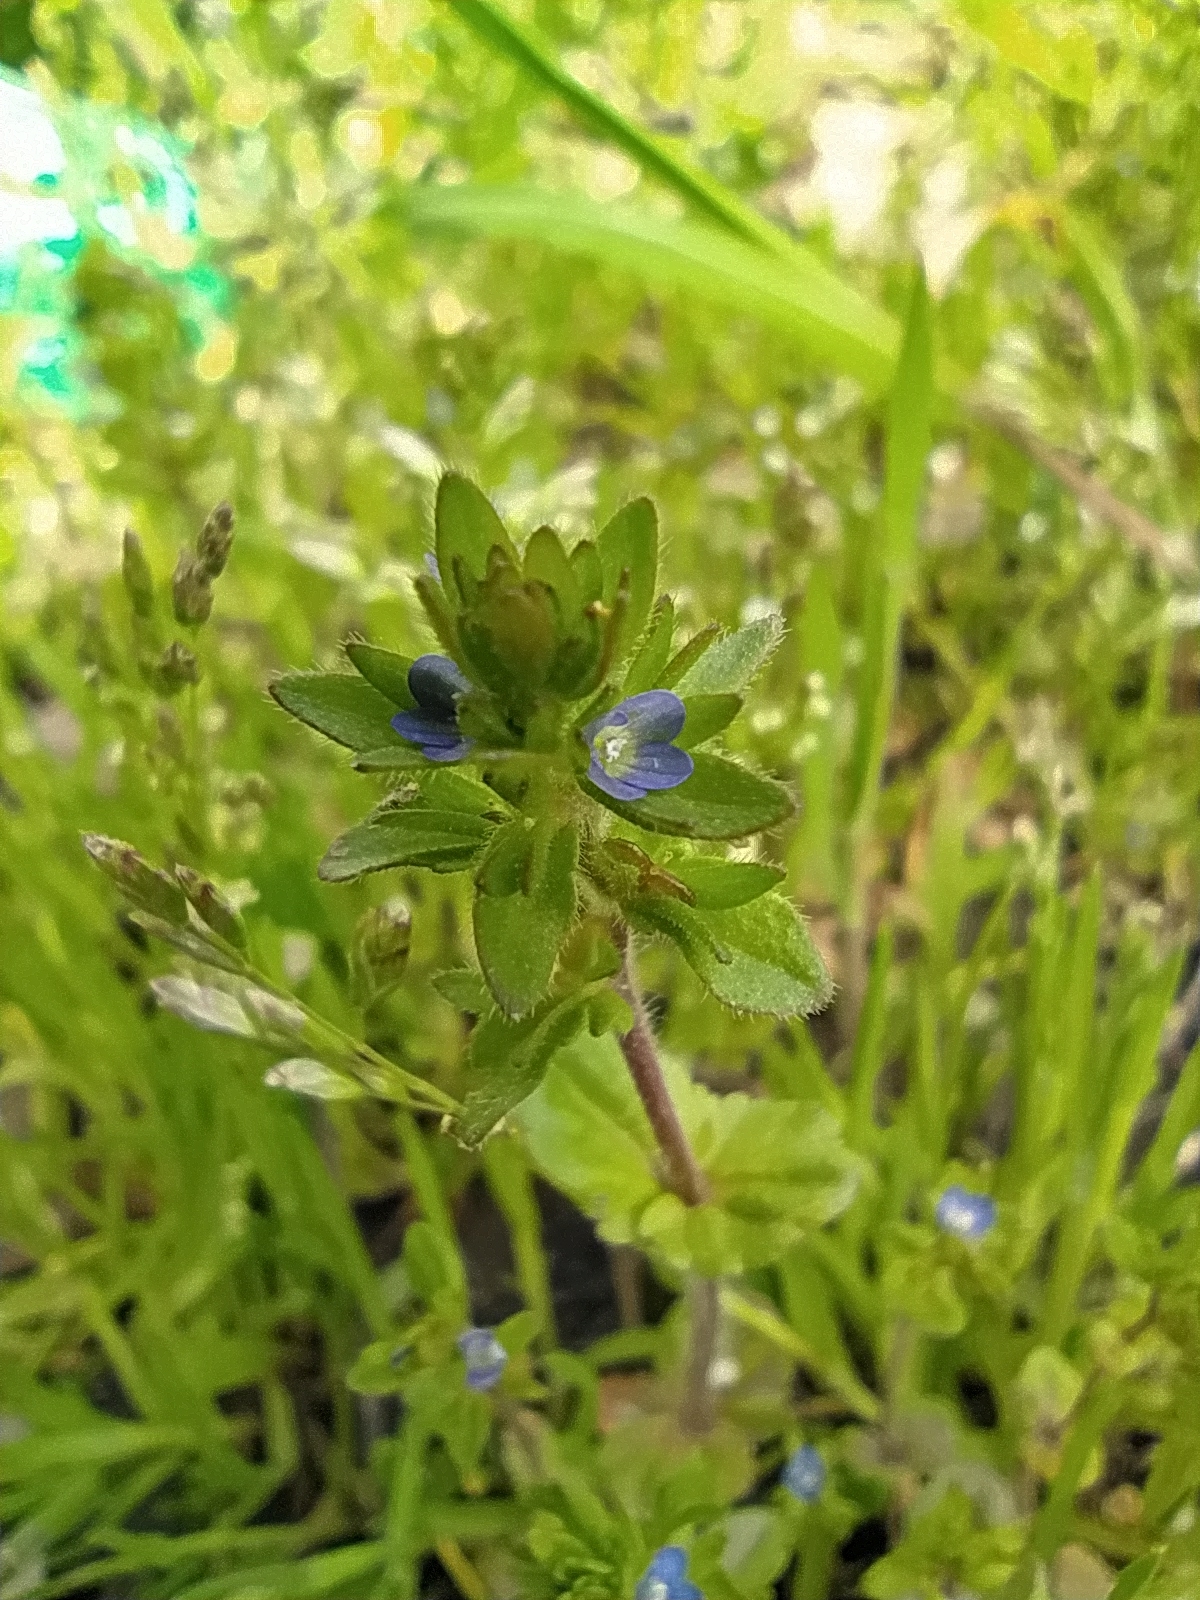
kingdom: Plantae
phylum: Tracheophyta
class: Magnoliopsida
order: Lamiales
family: Plantaginaceae
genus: Veronica
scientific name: Veronica arvensis
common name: Corn speedwell
